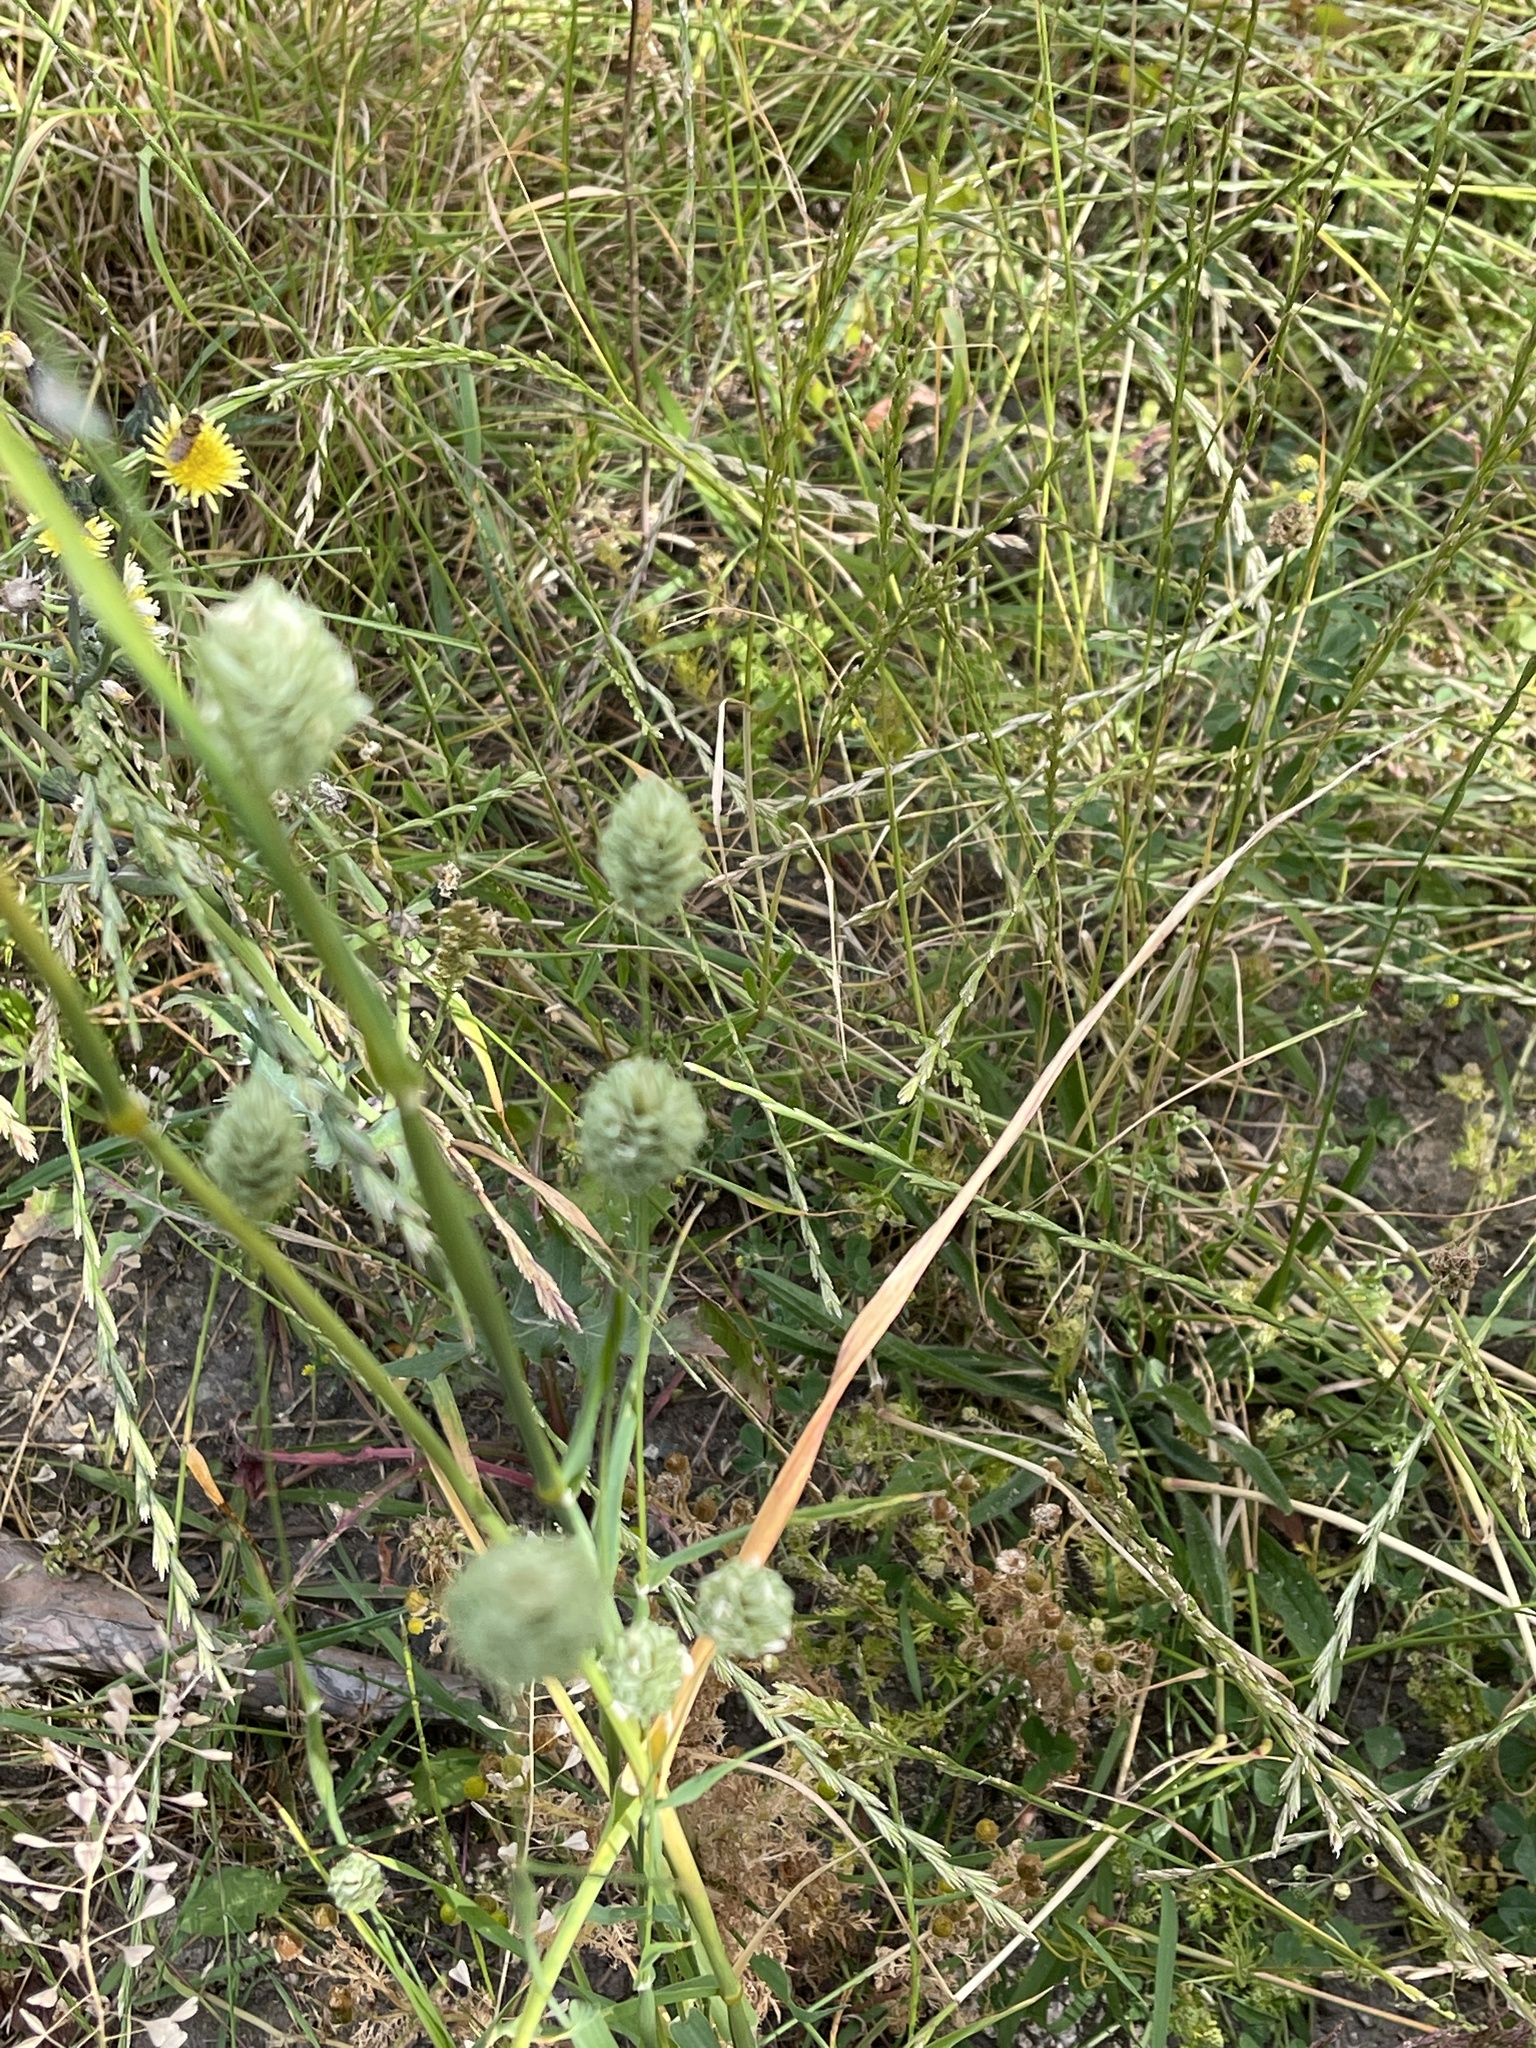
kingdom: Plantae
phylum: Tracheophyta
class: Liliopsida
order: Poales
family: Poaceae
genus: Phalaris
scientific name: Phalaris canariensis
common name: Annual canarygrass
